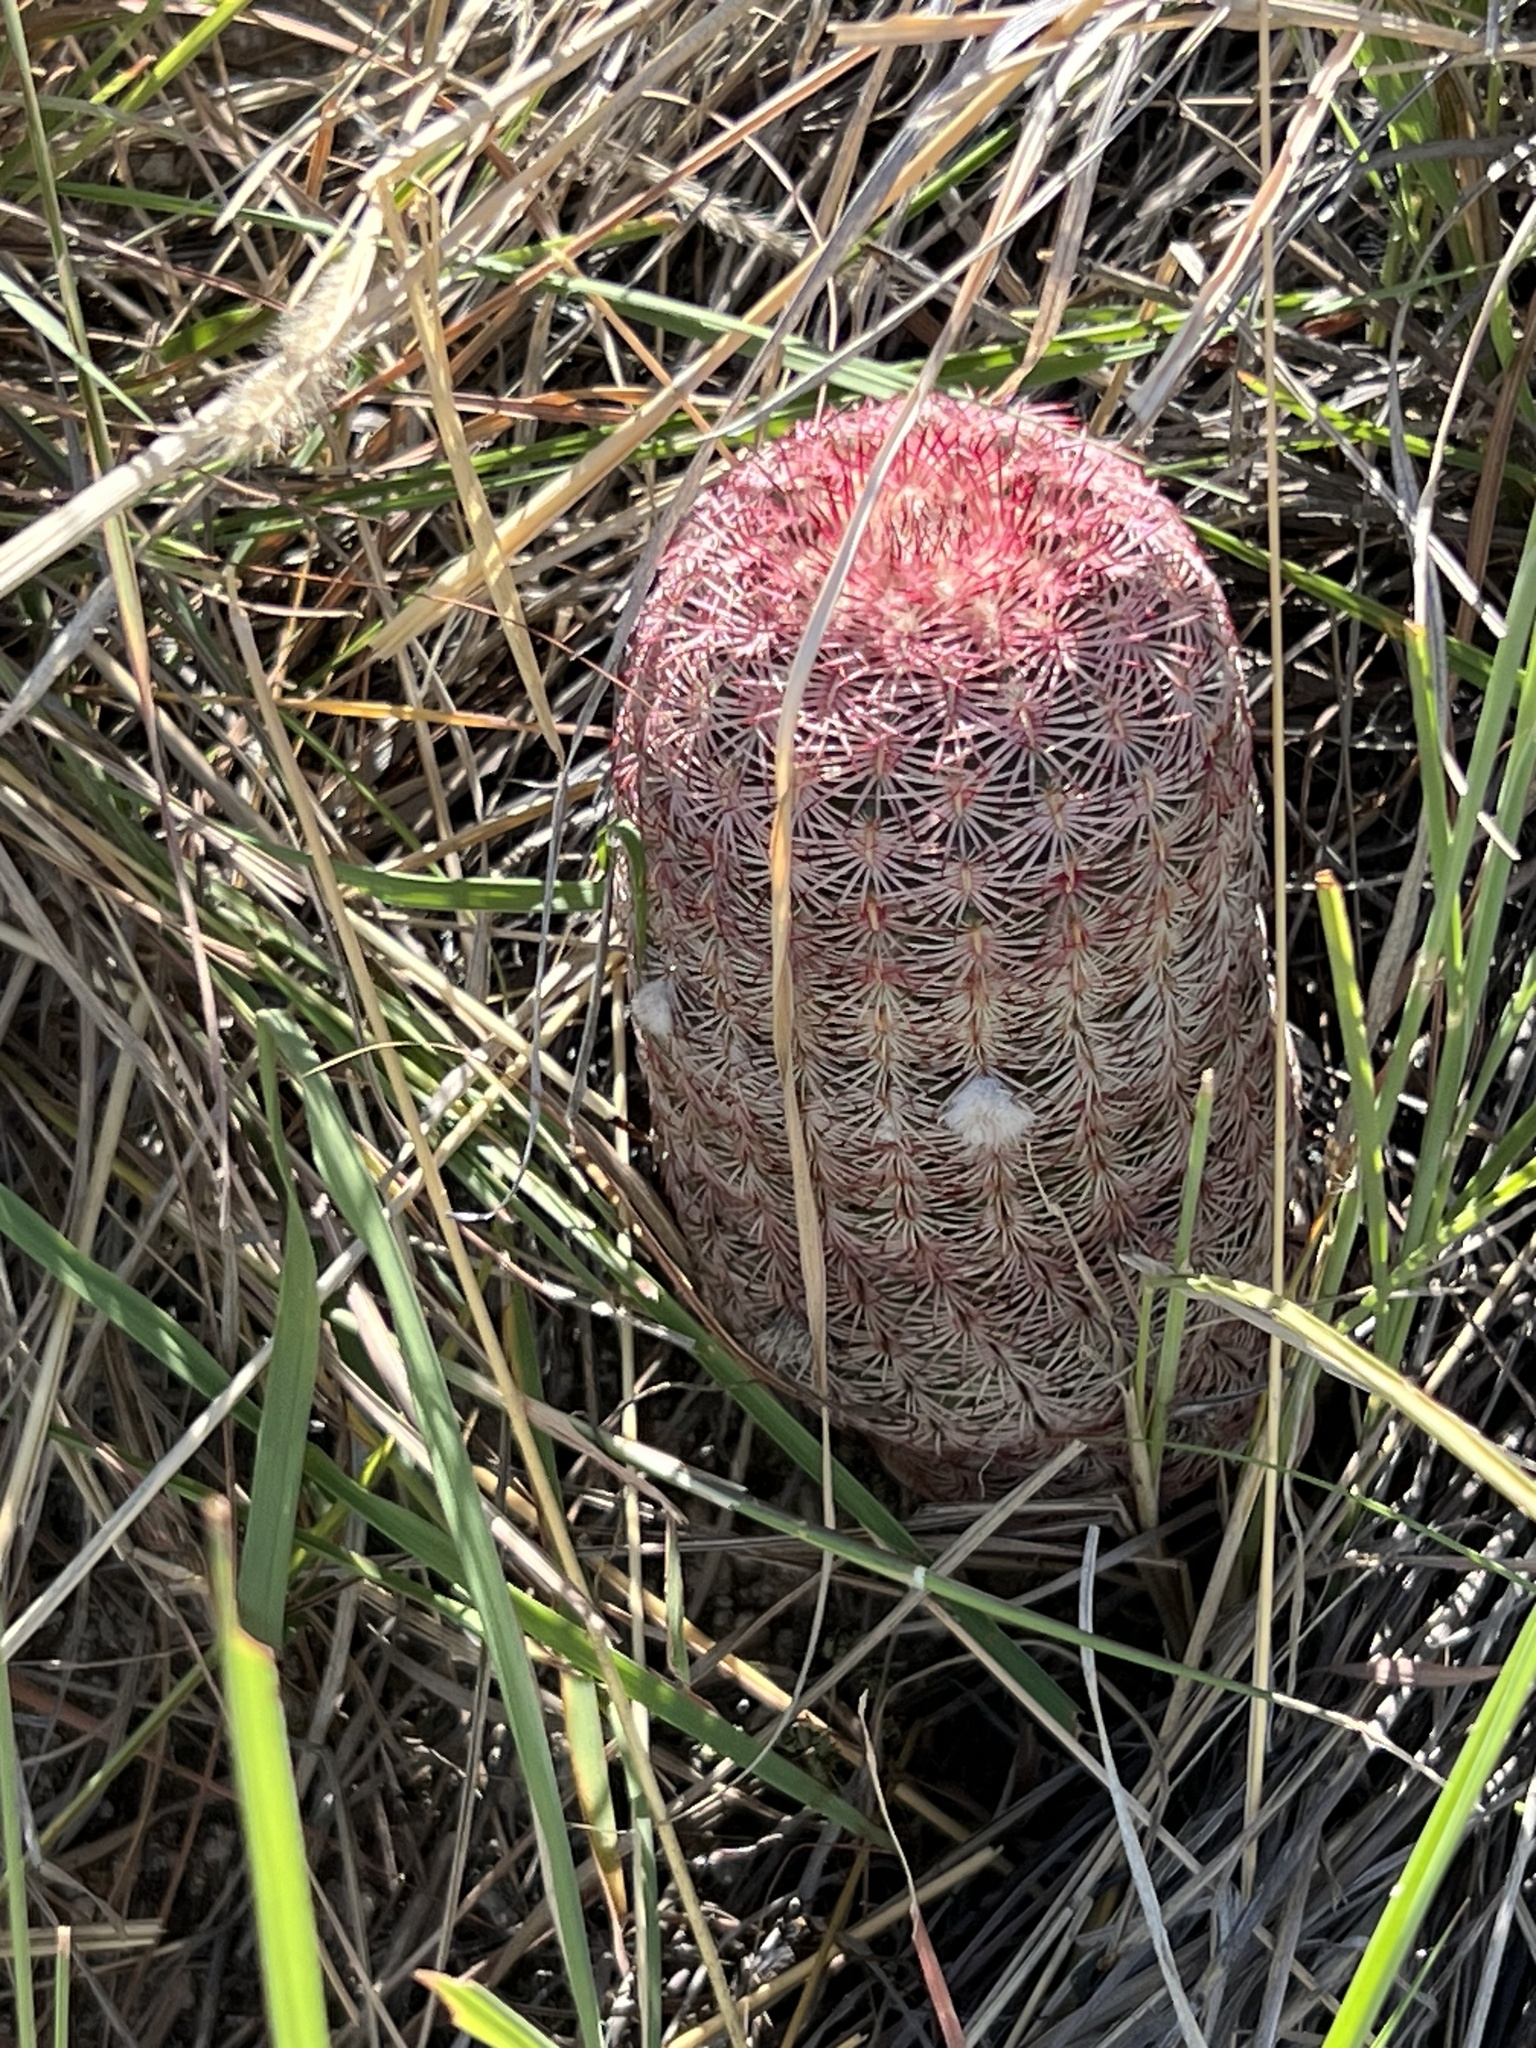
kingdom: Plantae
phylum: Tracheophyta
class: Magnoliopsida
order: Caryophyllales
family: Cactaceae
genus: Echinocereus
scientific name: Echinocereus rigidissimus
